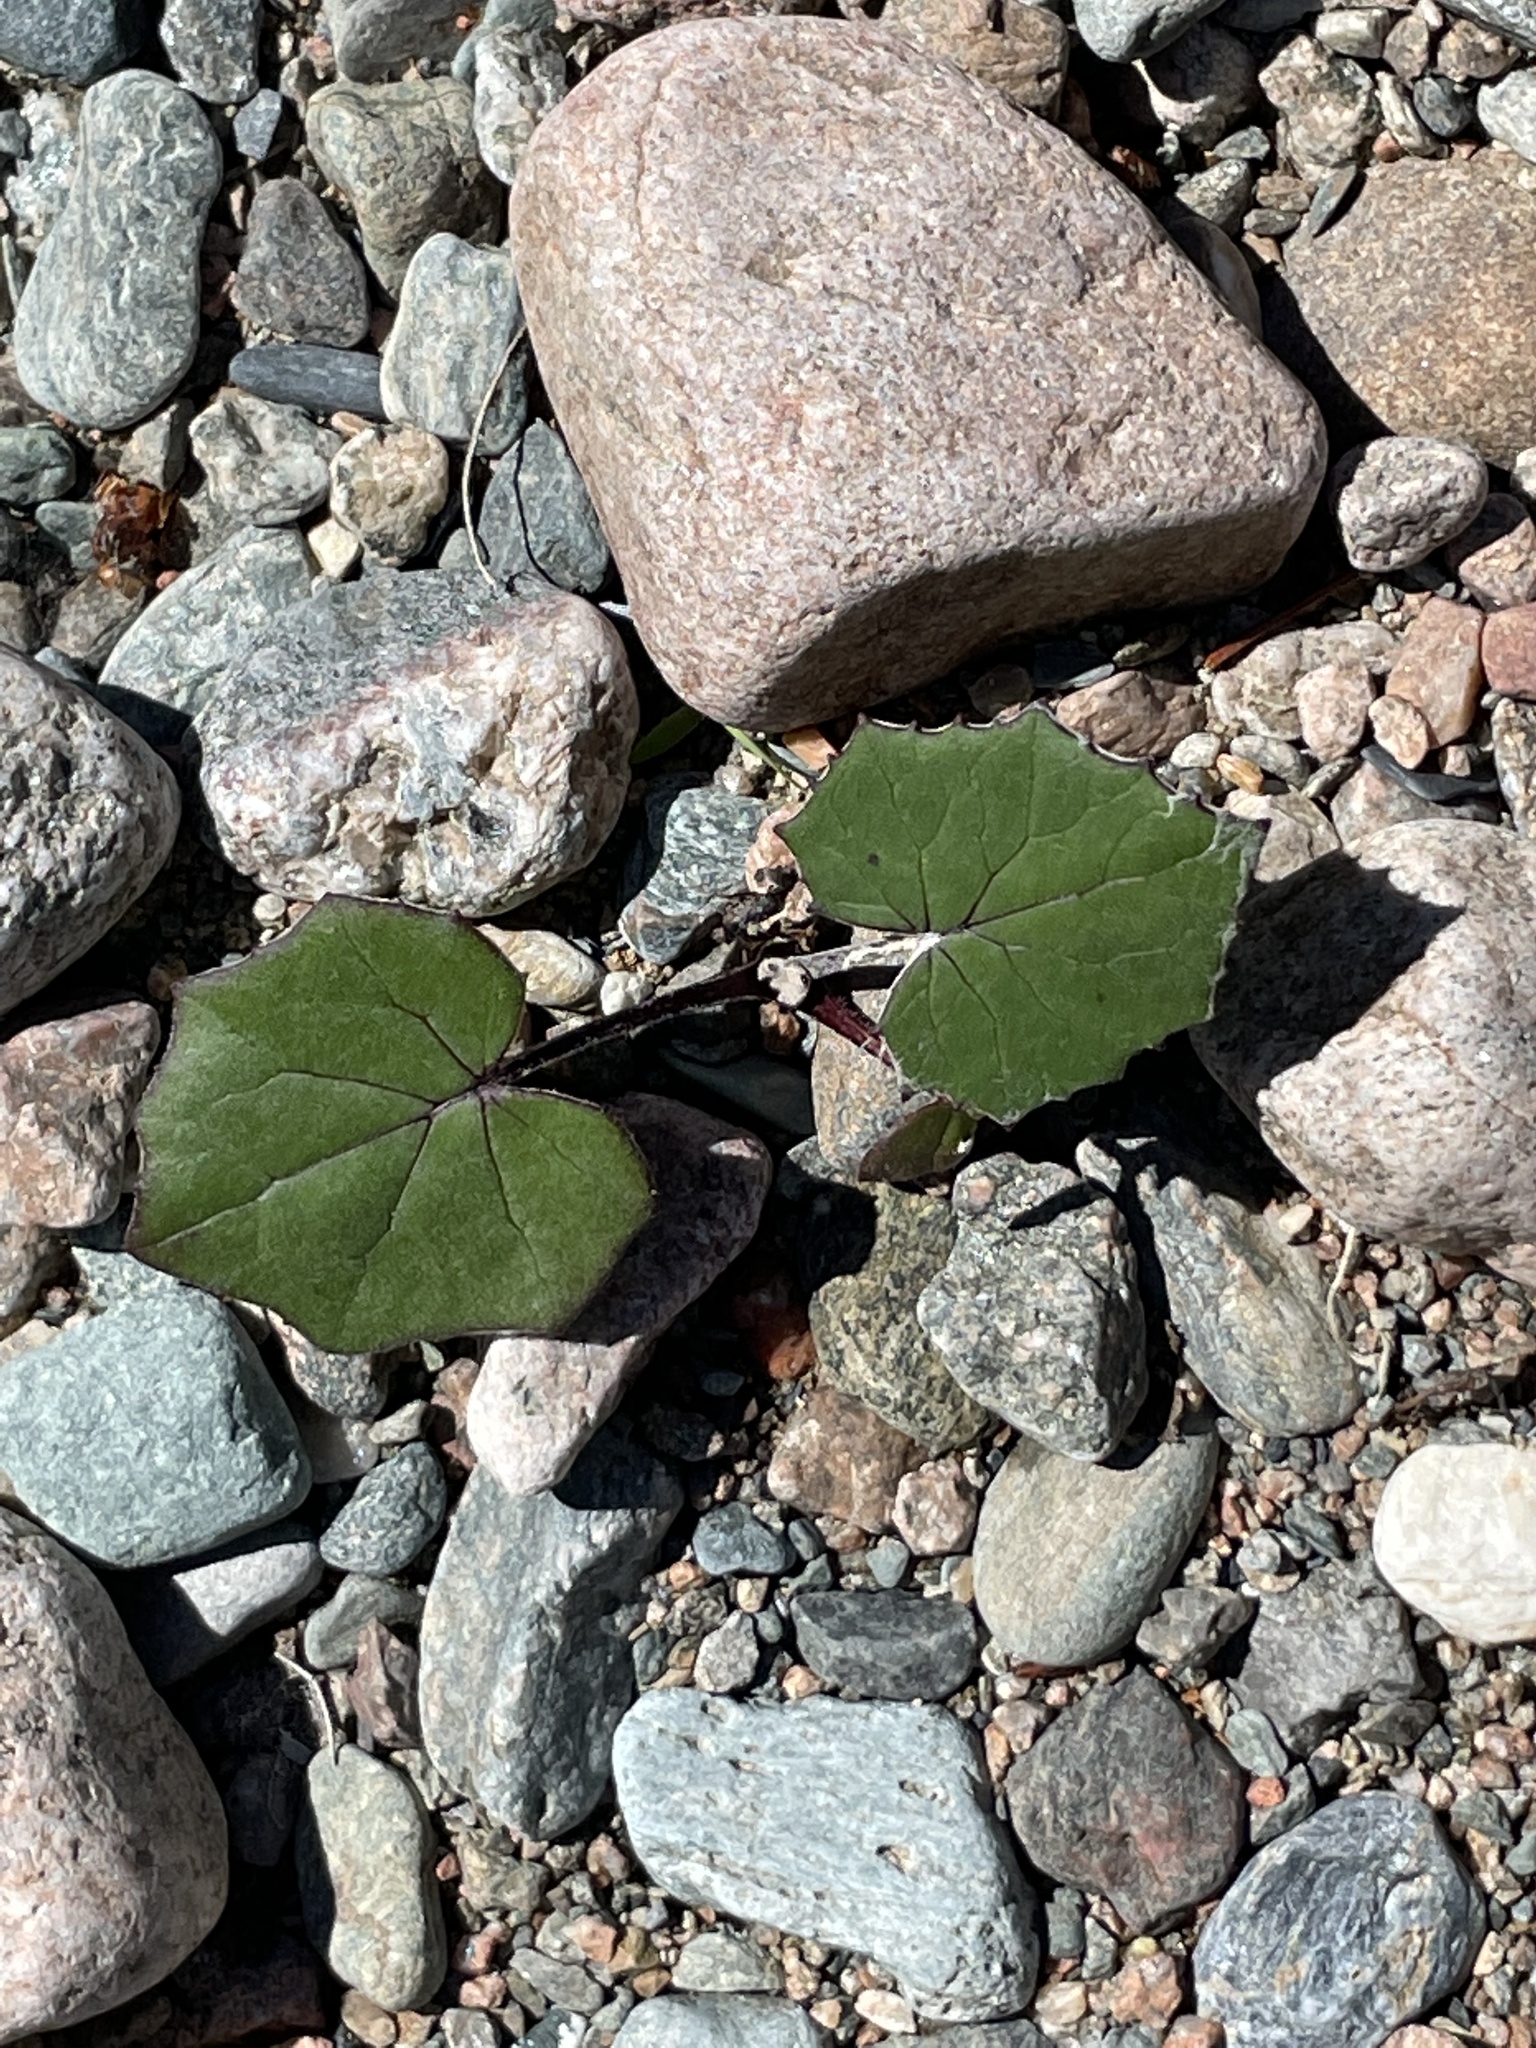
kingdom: Plantae
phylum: Tracheophyta
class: Magnoliopsida
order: Asterales
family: Asteraceae
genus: Tussilago
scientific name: Tussilago farfara
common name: Coltsfoot
